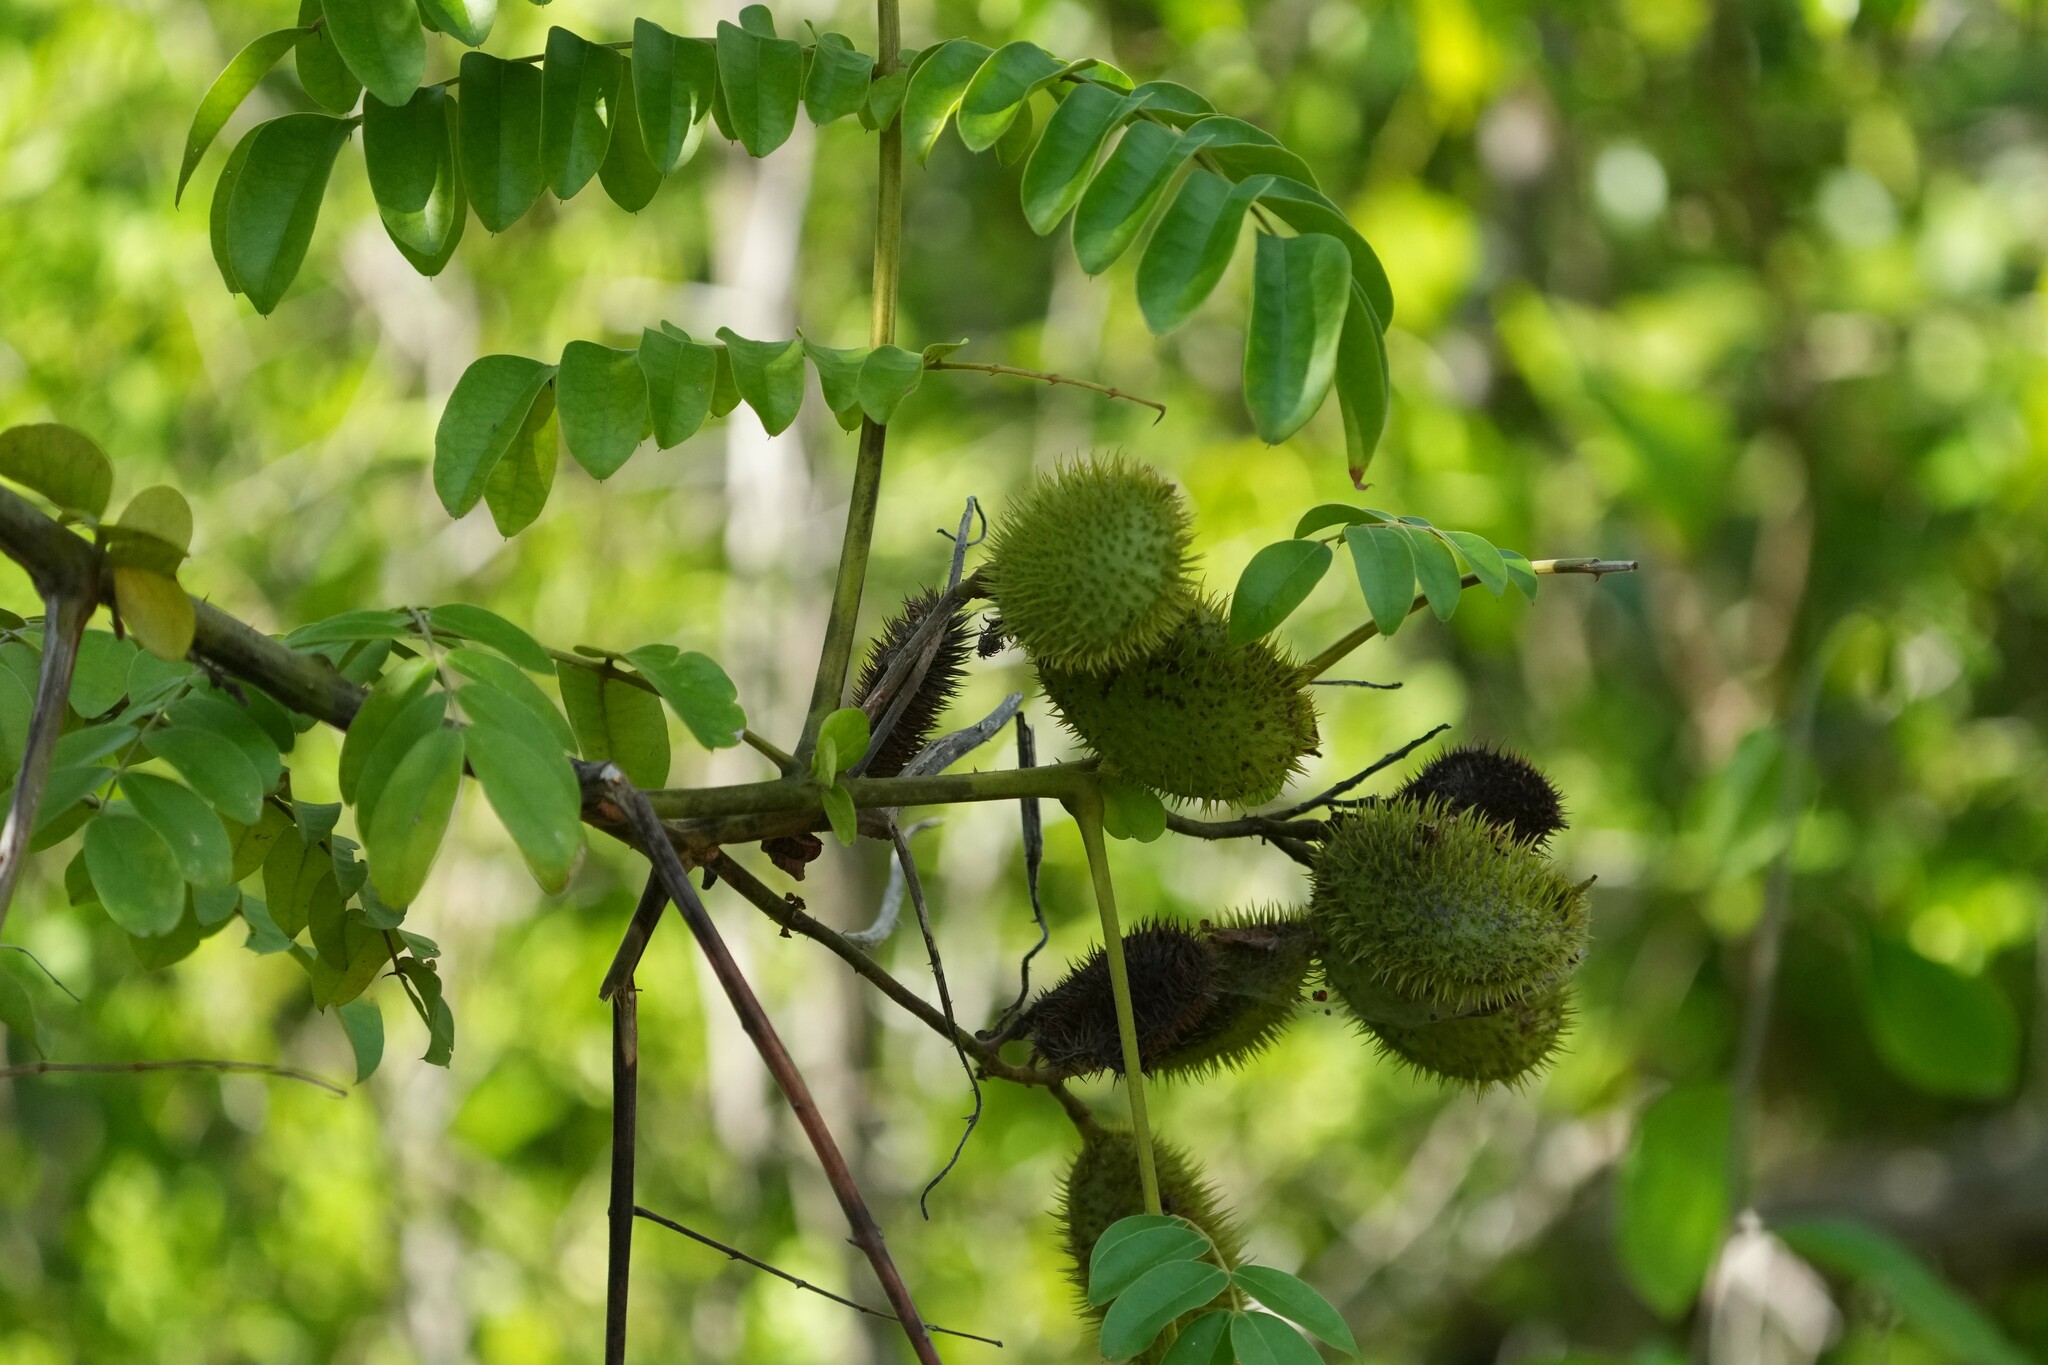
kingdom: Plantae
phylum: Tracheophyta
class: Magnoliopsida
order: Fabales
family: Fabaceae
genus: Guilandina
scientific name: Guilandina bonduc
